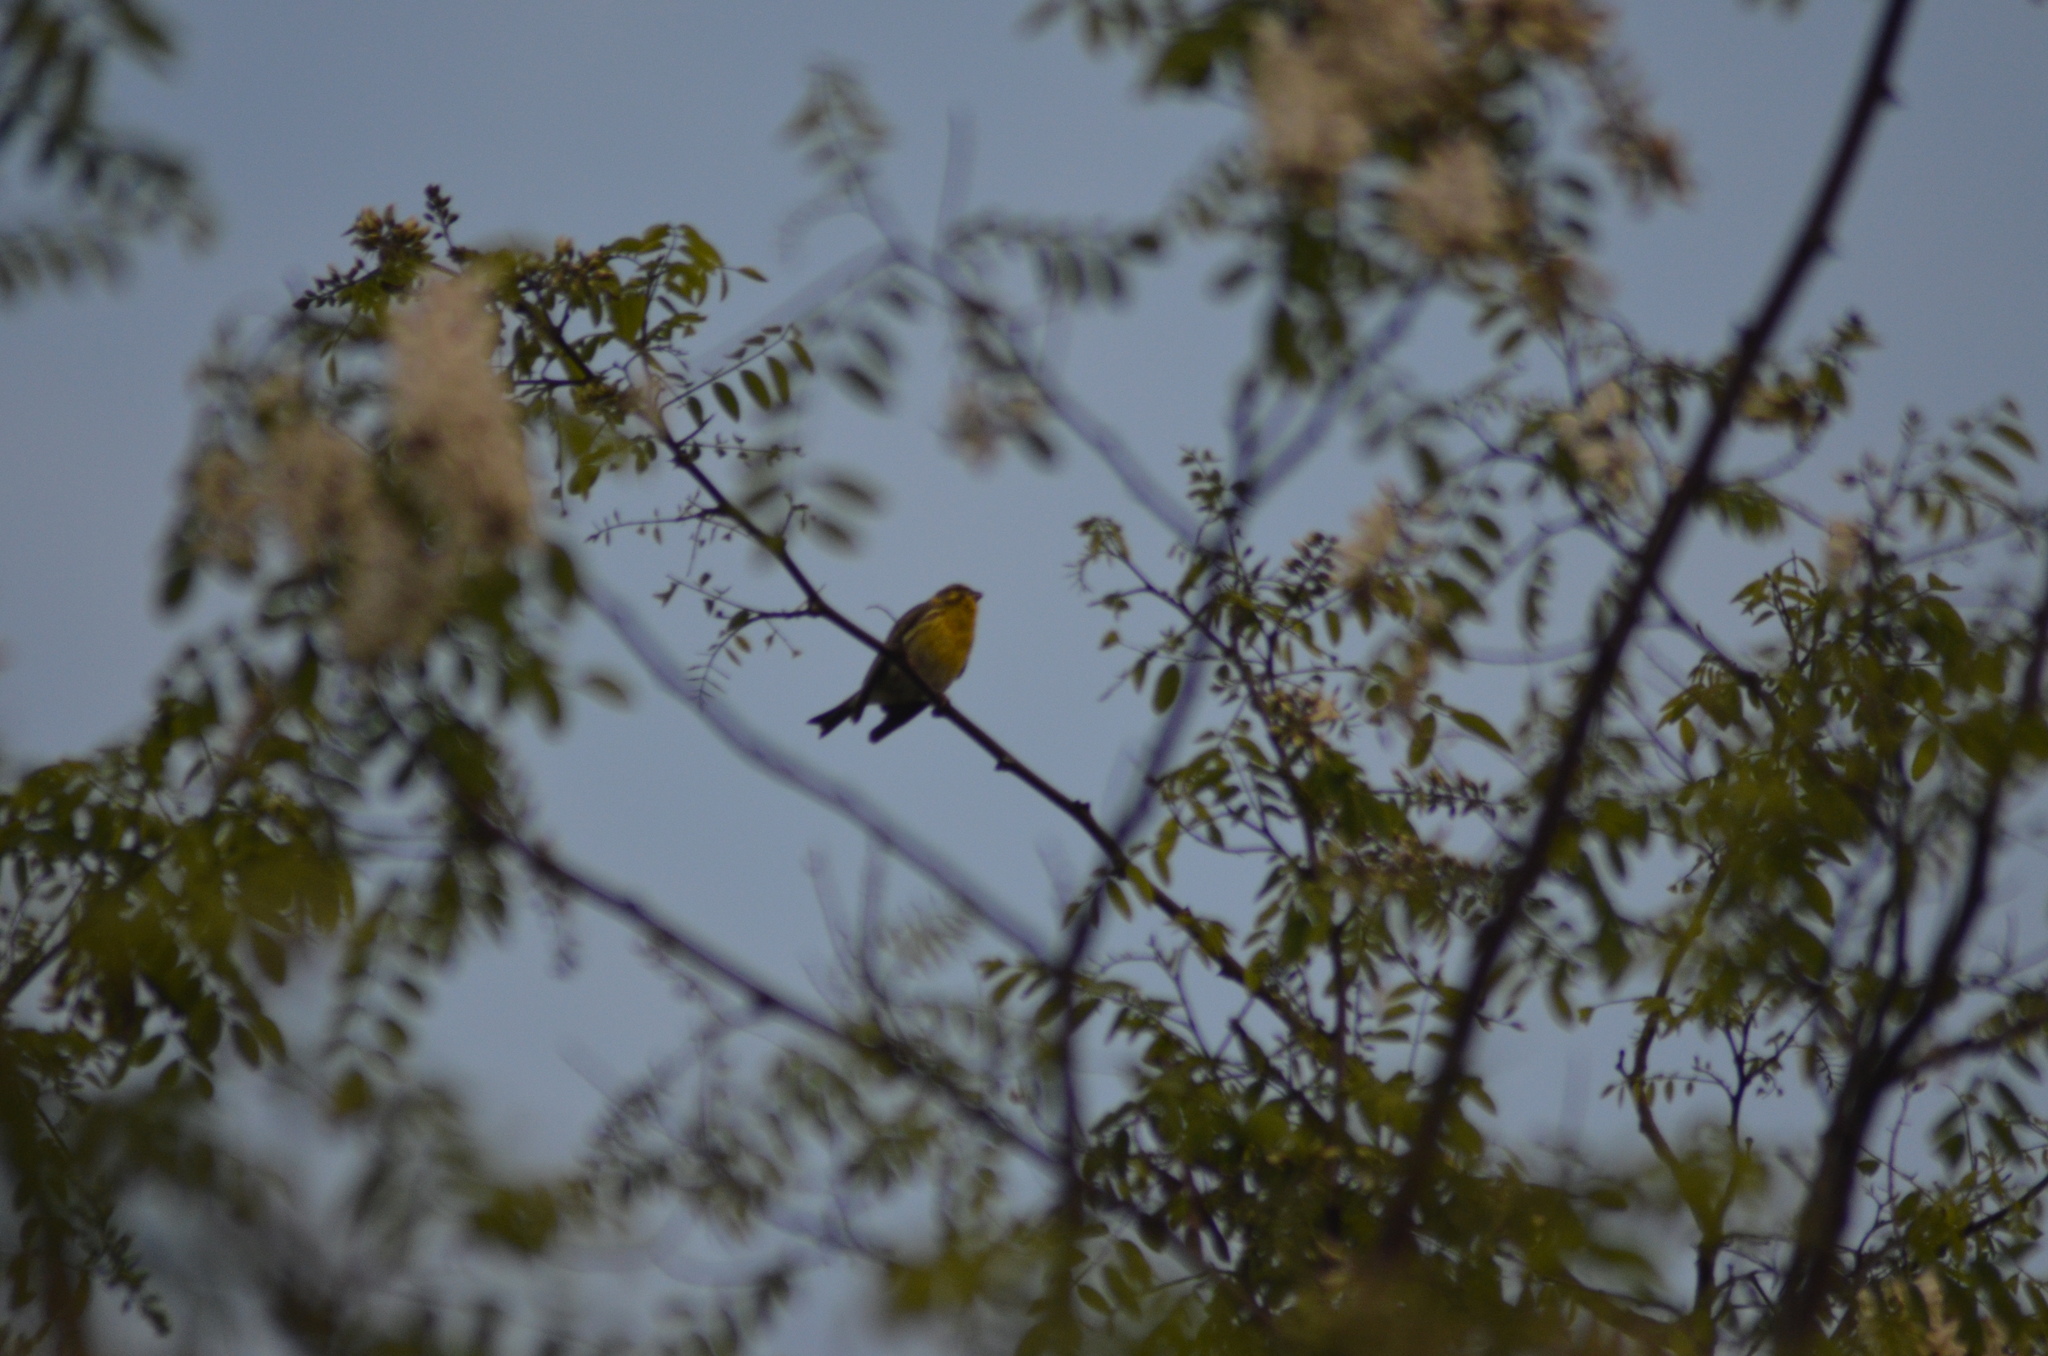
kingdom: Animalia
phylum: Chordata
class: Aves
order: Passeriformes
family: Fringillidae
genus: Serinus
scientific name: Serinus serinus
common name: European serin
